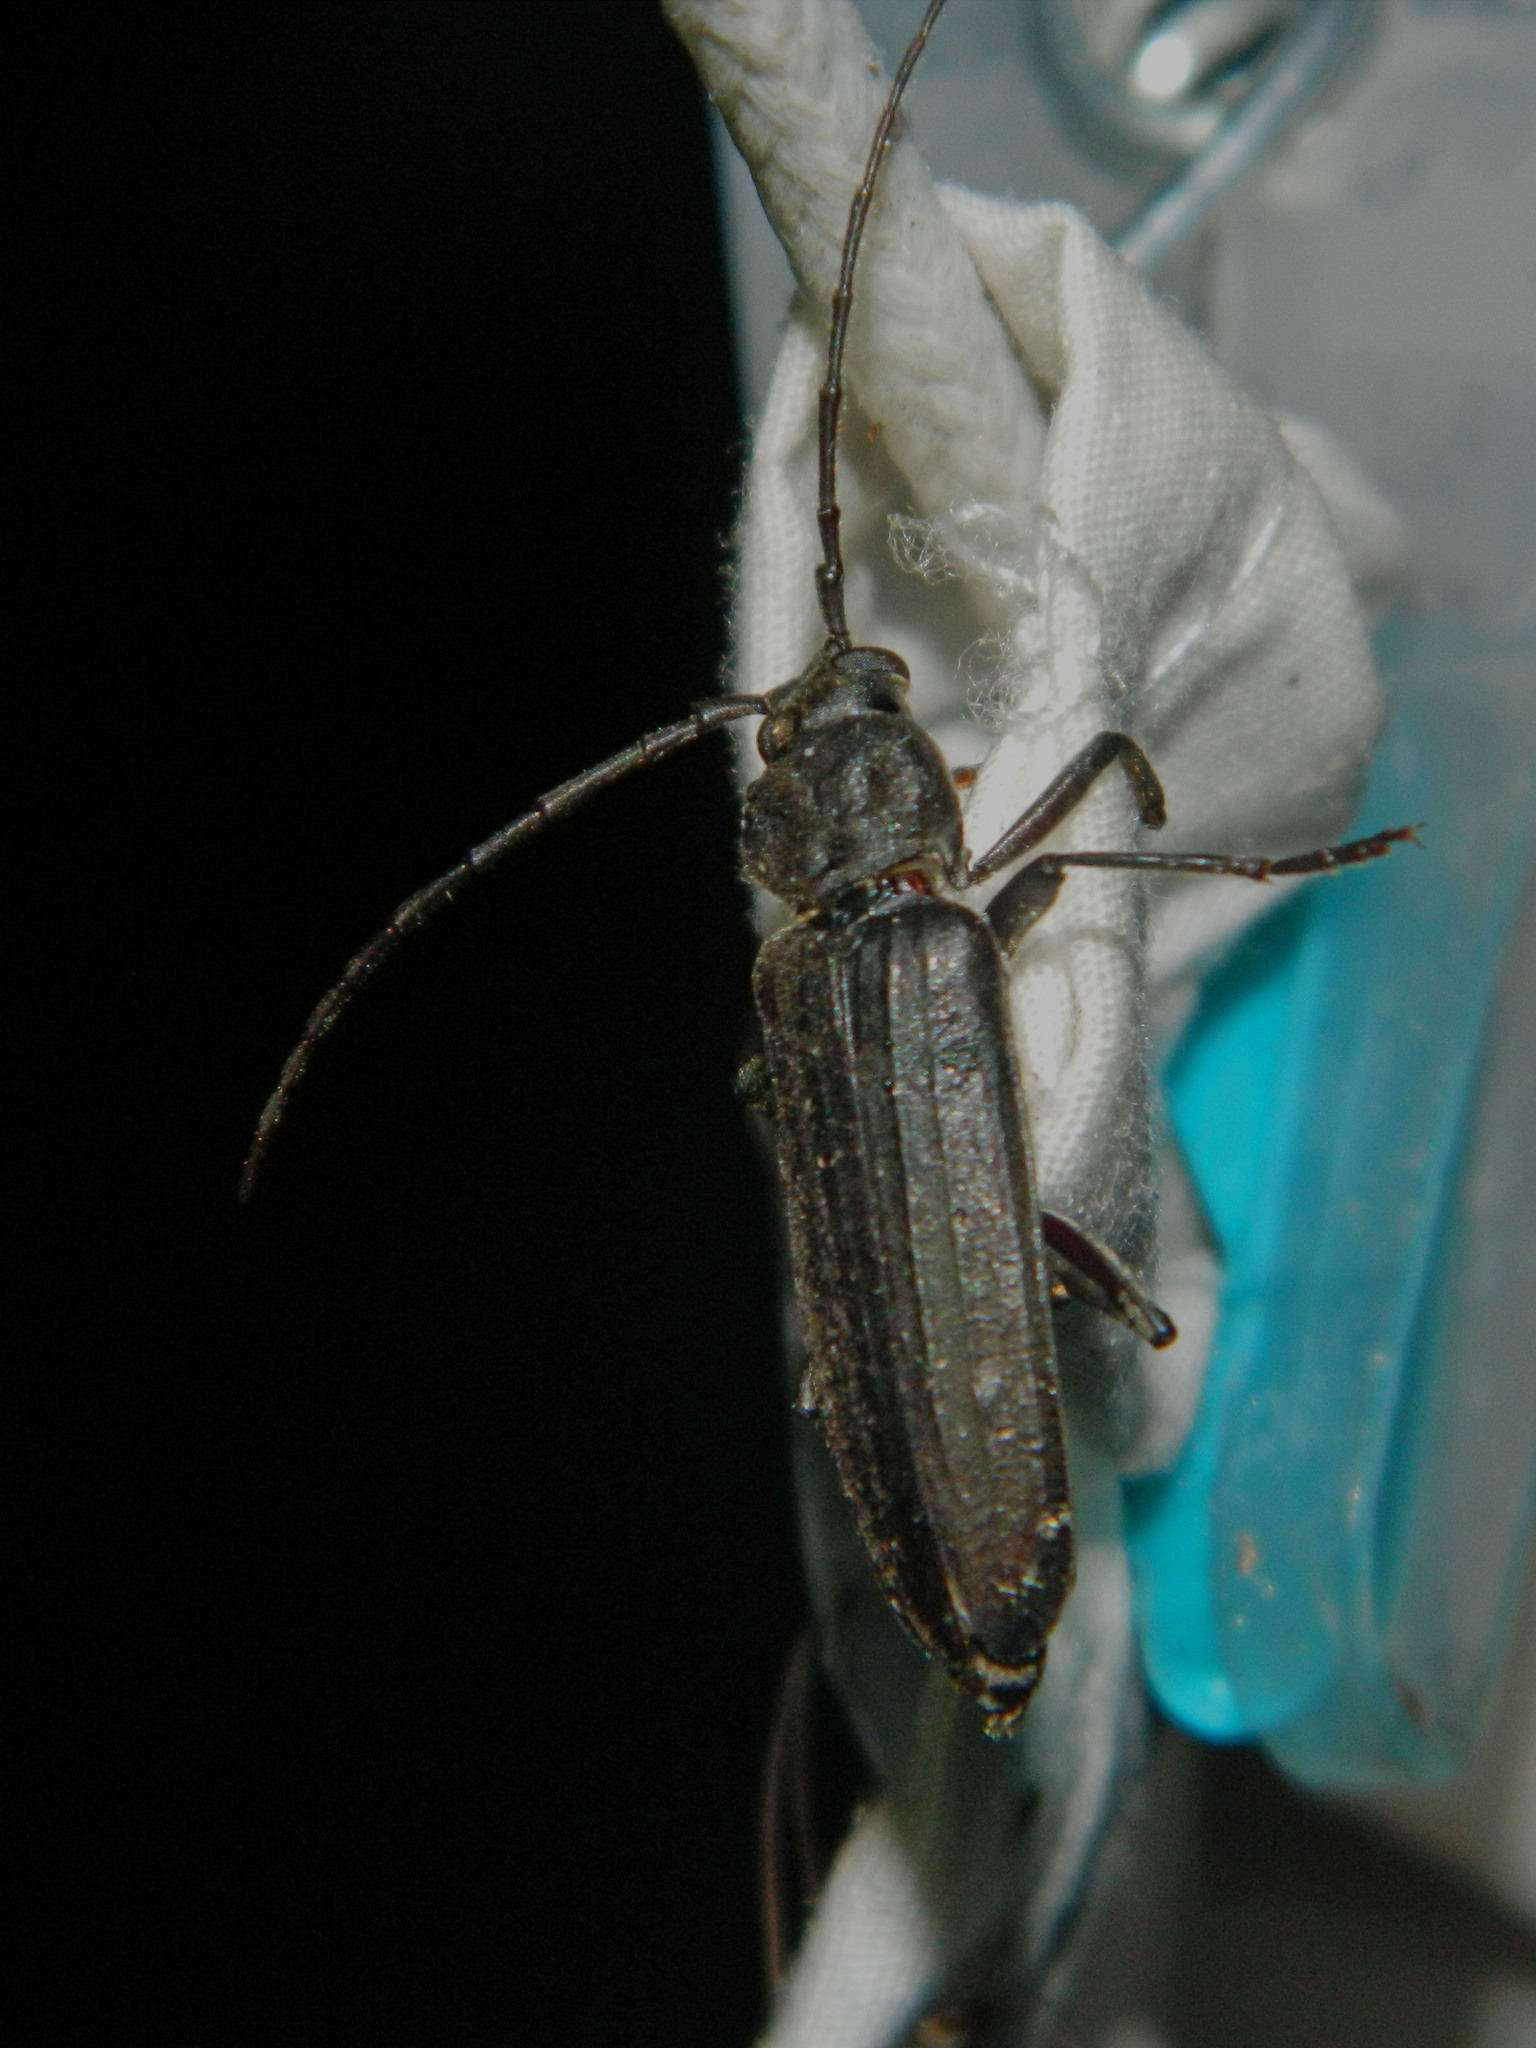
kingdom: Animalia
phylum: Arthropoda
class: Insecta
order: Coleoptera
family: Cerambycidae
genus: Arhopalus
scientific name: Arhopalus foveicollis
